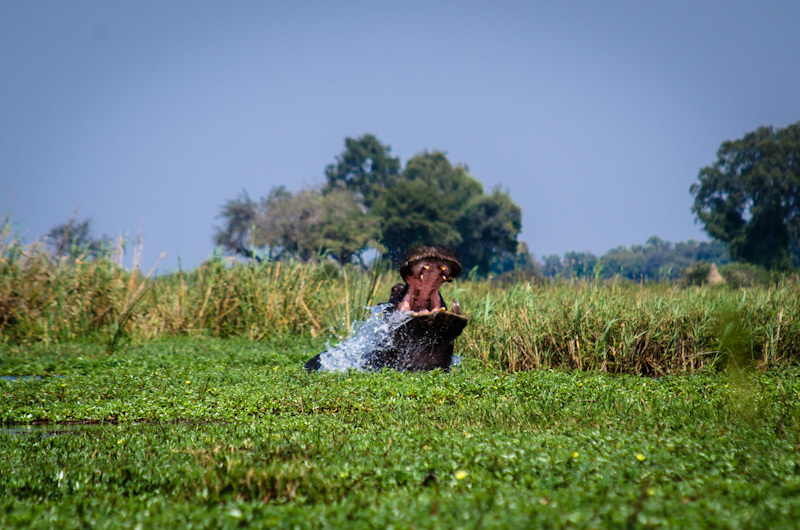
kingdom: Animalia
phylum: Chordata
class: Mammalia
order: Artiodactyla
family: Hippopotamidae
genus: Hippopotamus
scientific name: Hippopotamus amphibius
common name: Common hippopotamus
